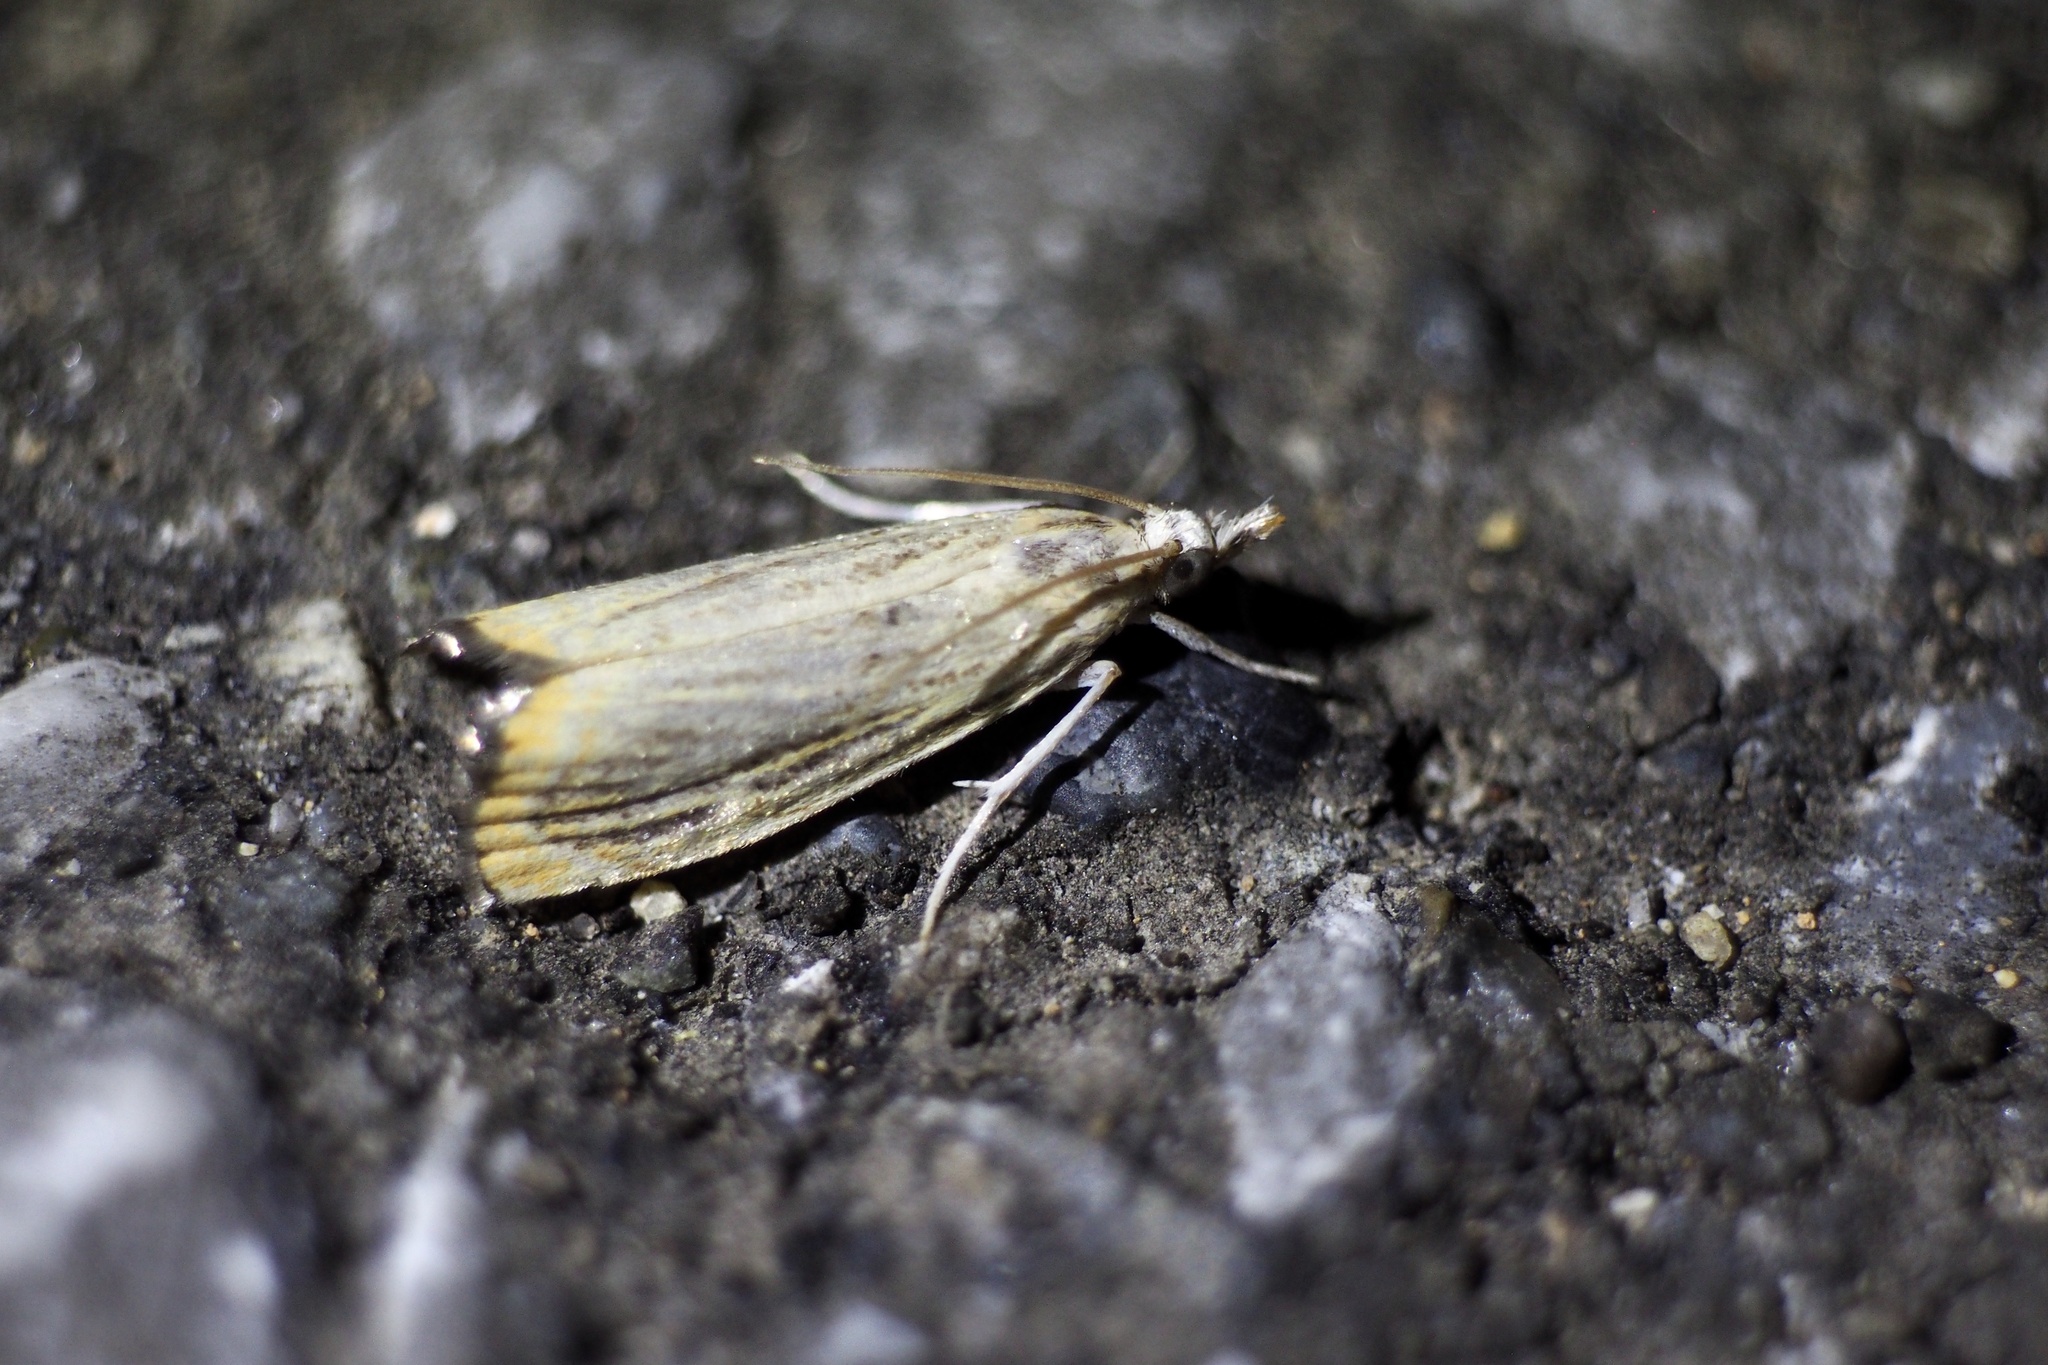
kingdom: Animalia
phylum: Arthropoda
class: Insecta
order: Lepidoptera
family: Crambidae
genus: Flavocrambus
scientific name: Flavocrambus striatellus
